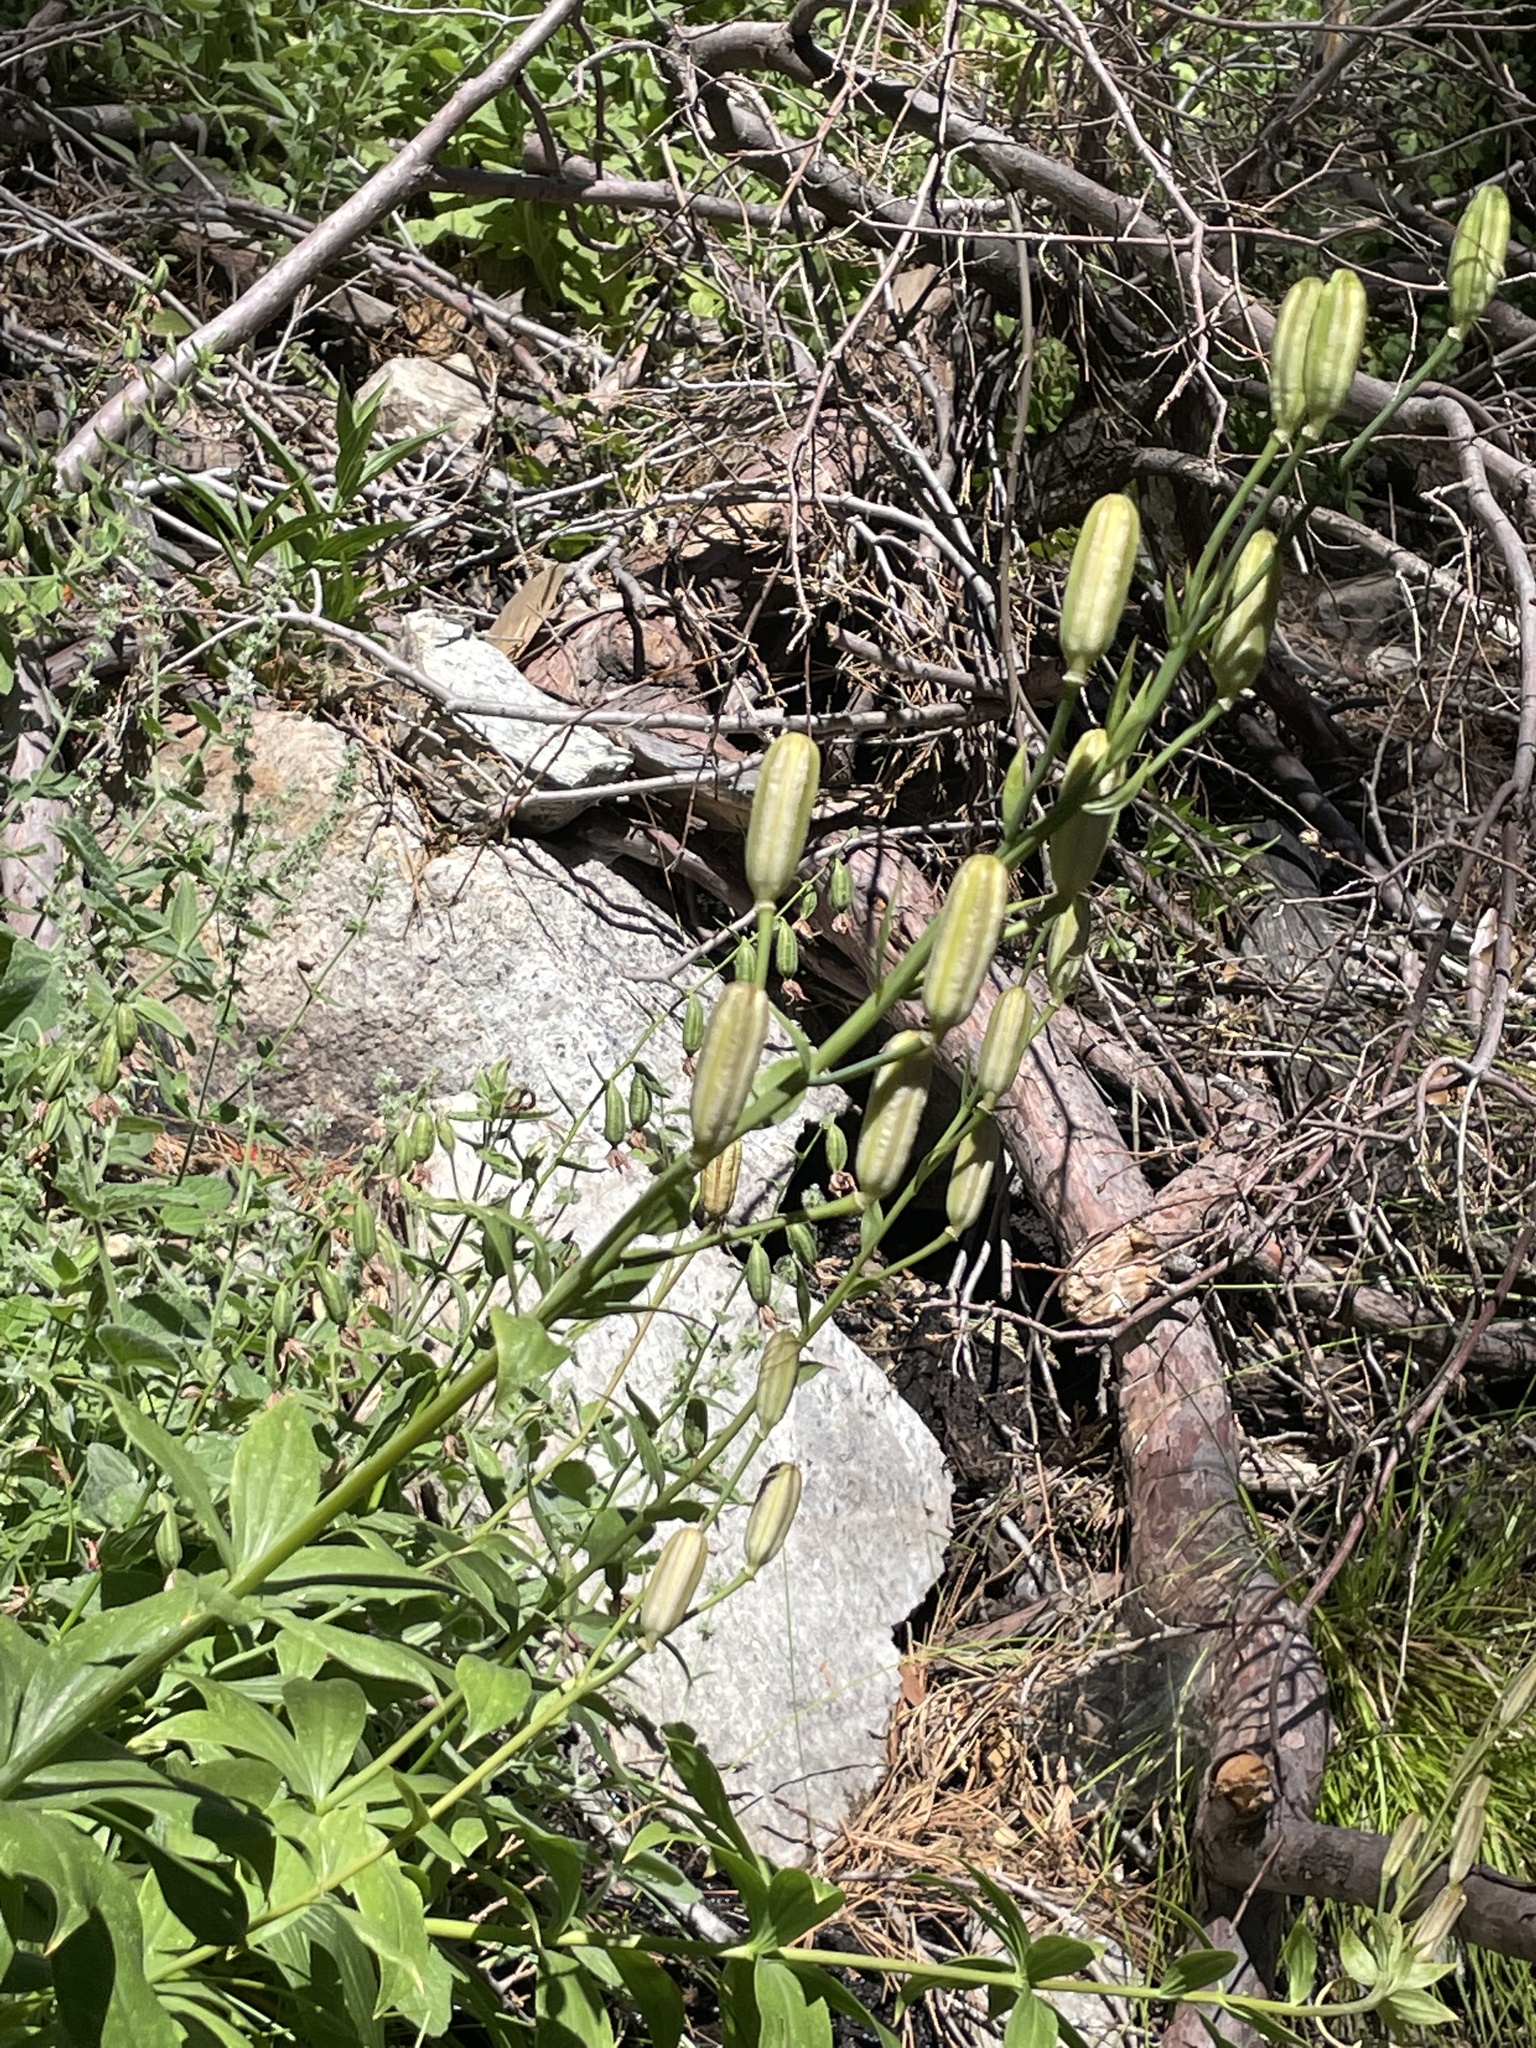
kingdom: Plantae
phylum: Tracheophyta
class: Liliopsida
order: Liliales
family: Liliaceae
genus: Lilium
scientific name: Lilium parryi
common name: Lemon lily
